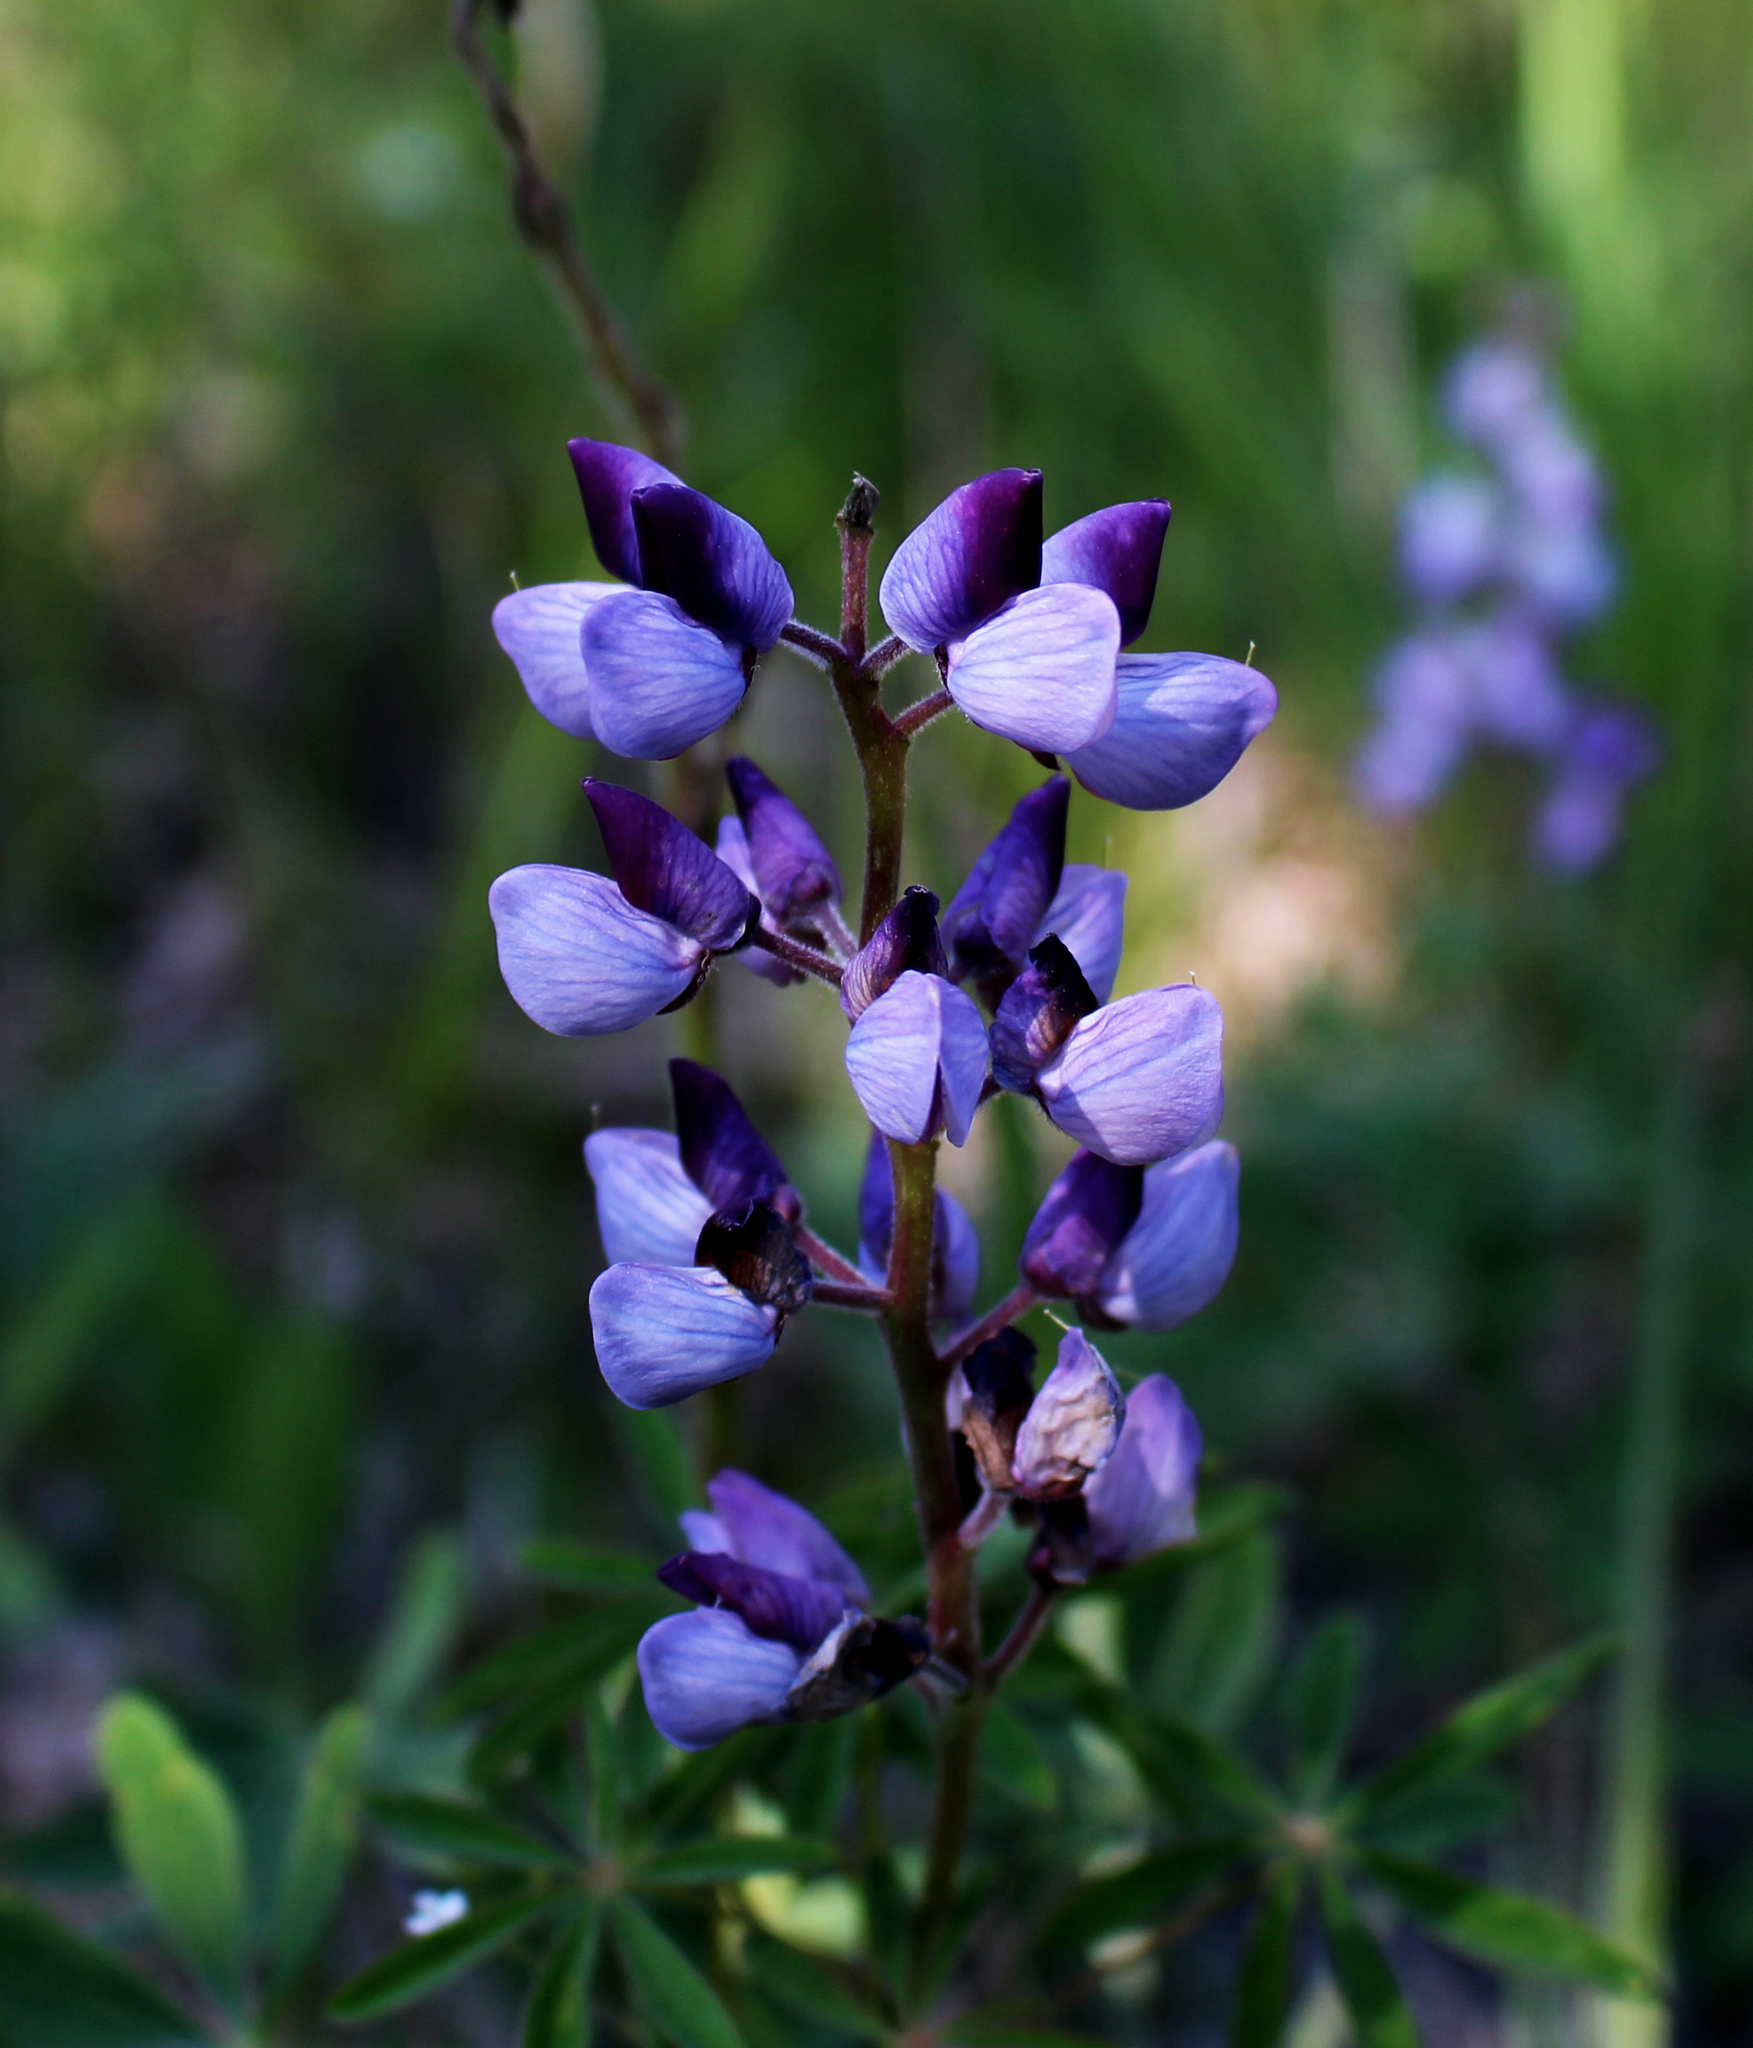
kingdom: Plantae
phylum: Tracheophyta
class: Magnoliopsida
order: Fabales
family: Fabaceae
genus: Lupinus
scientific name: Lupinus perennis
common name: Sundial lupine
